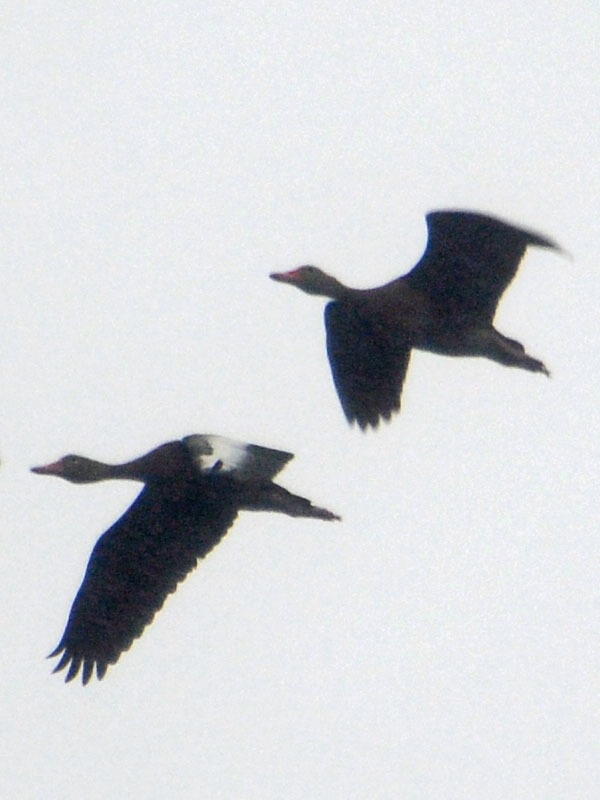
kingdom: Animalia
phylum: Chordata
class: Aves
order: Anseriformes
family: Anatidae
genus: Dendrocygna
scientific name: Dendrocygna autumnalis
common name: Black-bellied whistling duck
